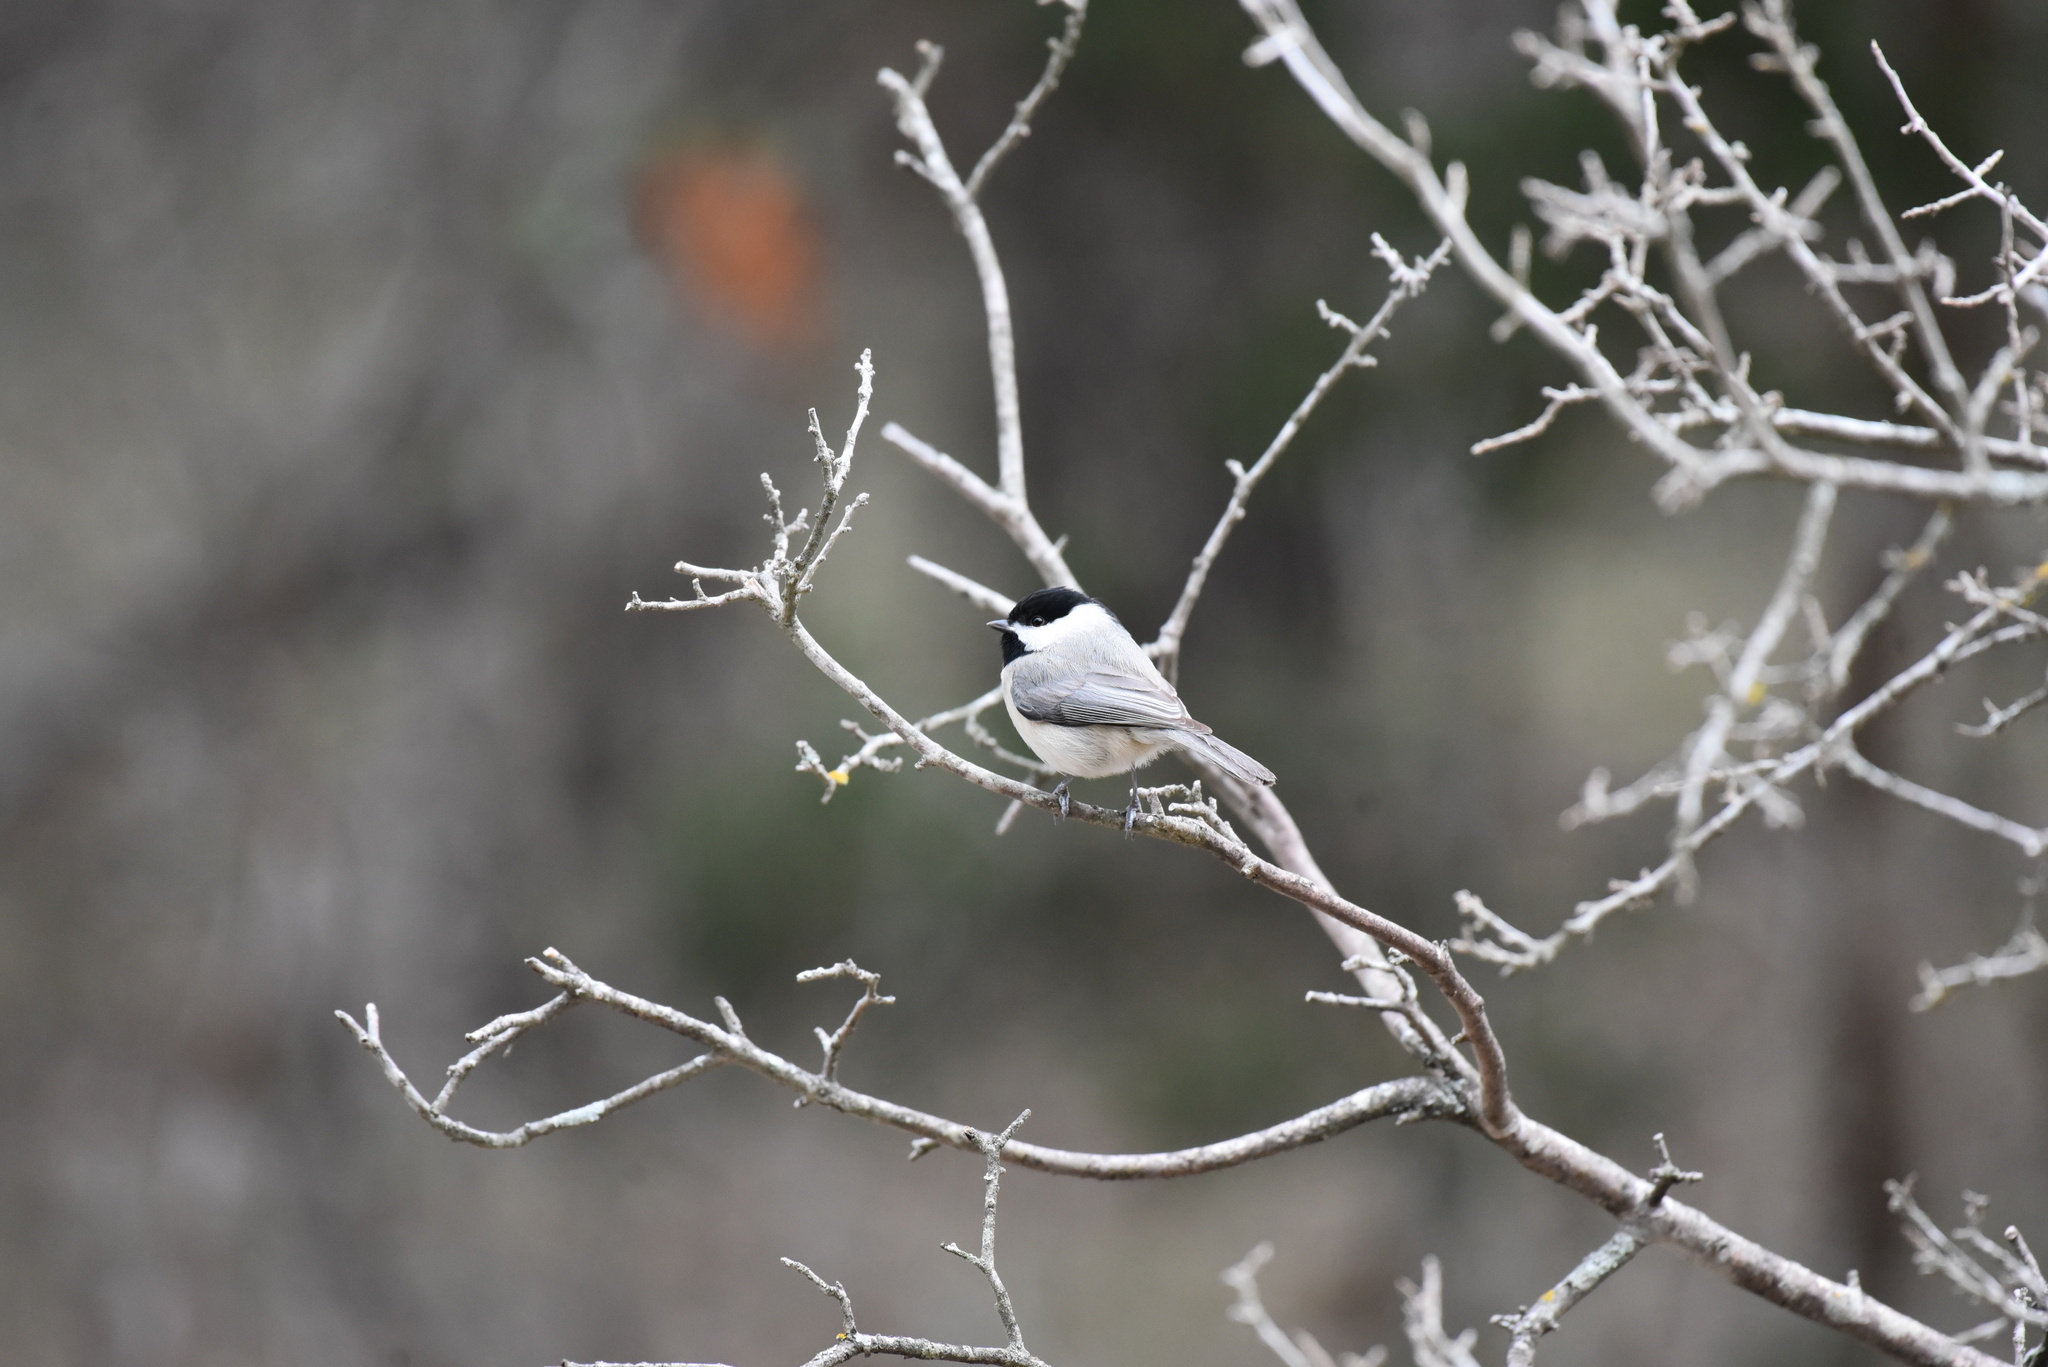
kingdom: Animalia
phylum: Chordata
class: Aves
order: Passeriformes
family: Paridae
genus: Poecile
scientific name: Poecile carolinensis
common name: Carolina chickadee
